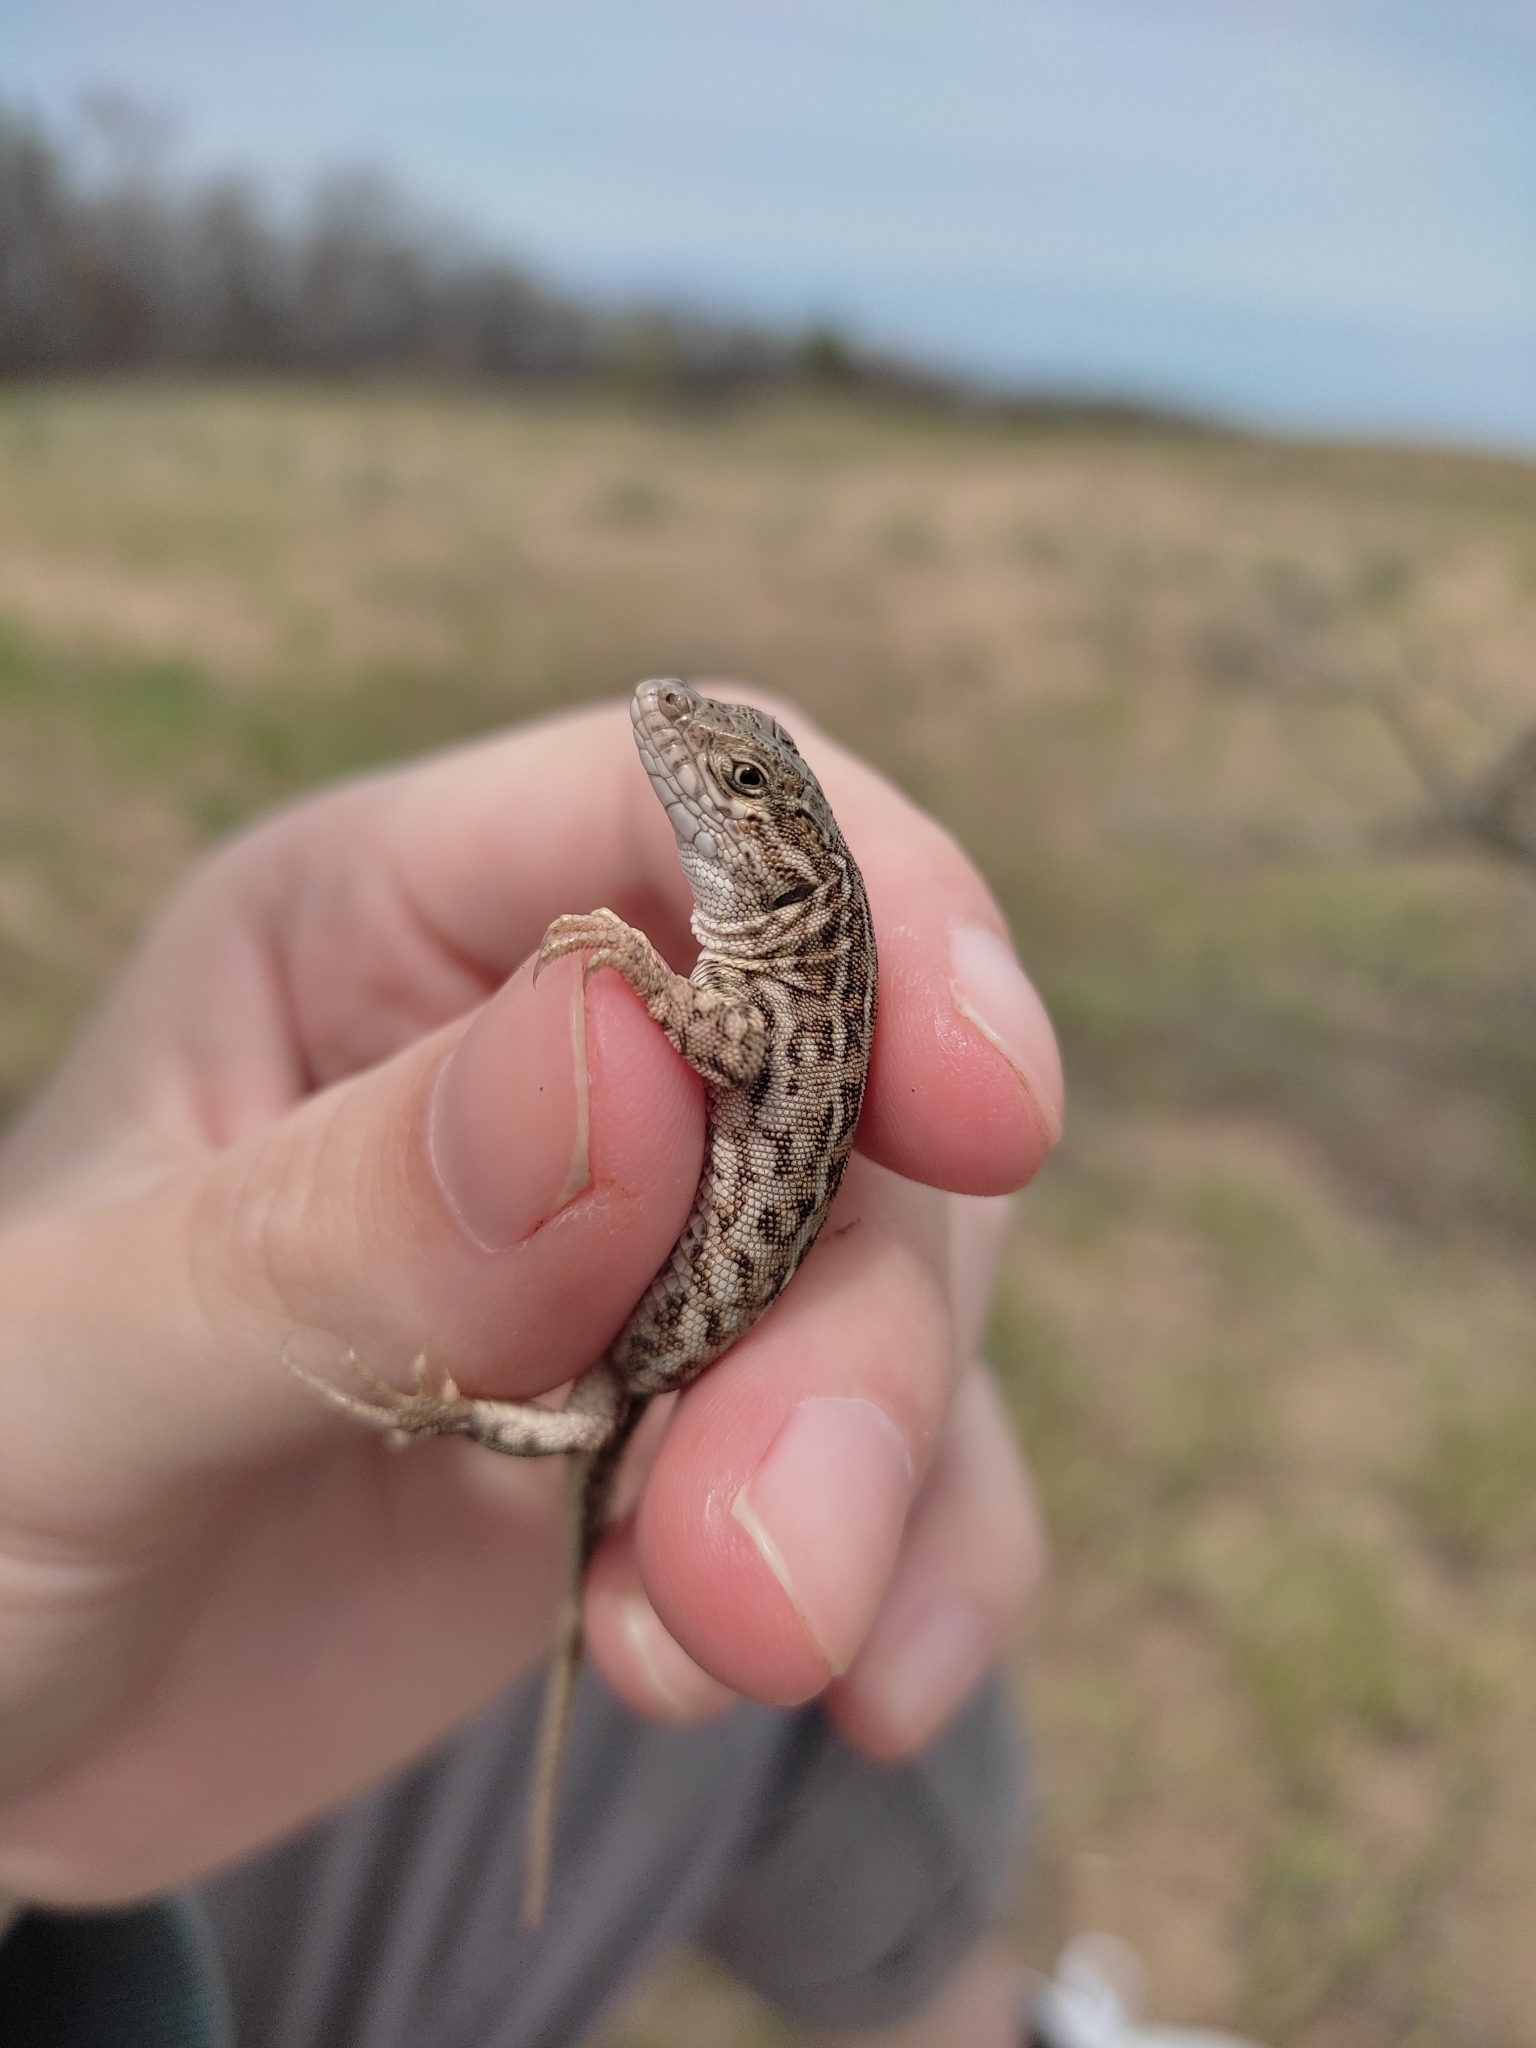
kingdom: Animalia
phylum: Chordata
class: Squamata
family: Lacertidae
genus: Eremias
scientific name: Eremias arguta
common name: Racerunner
